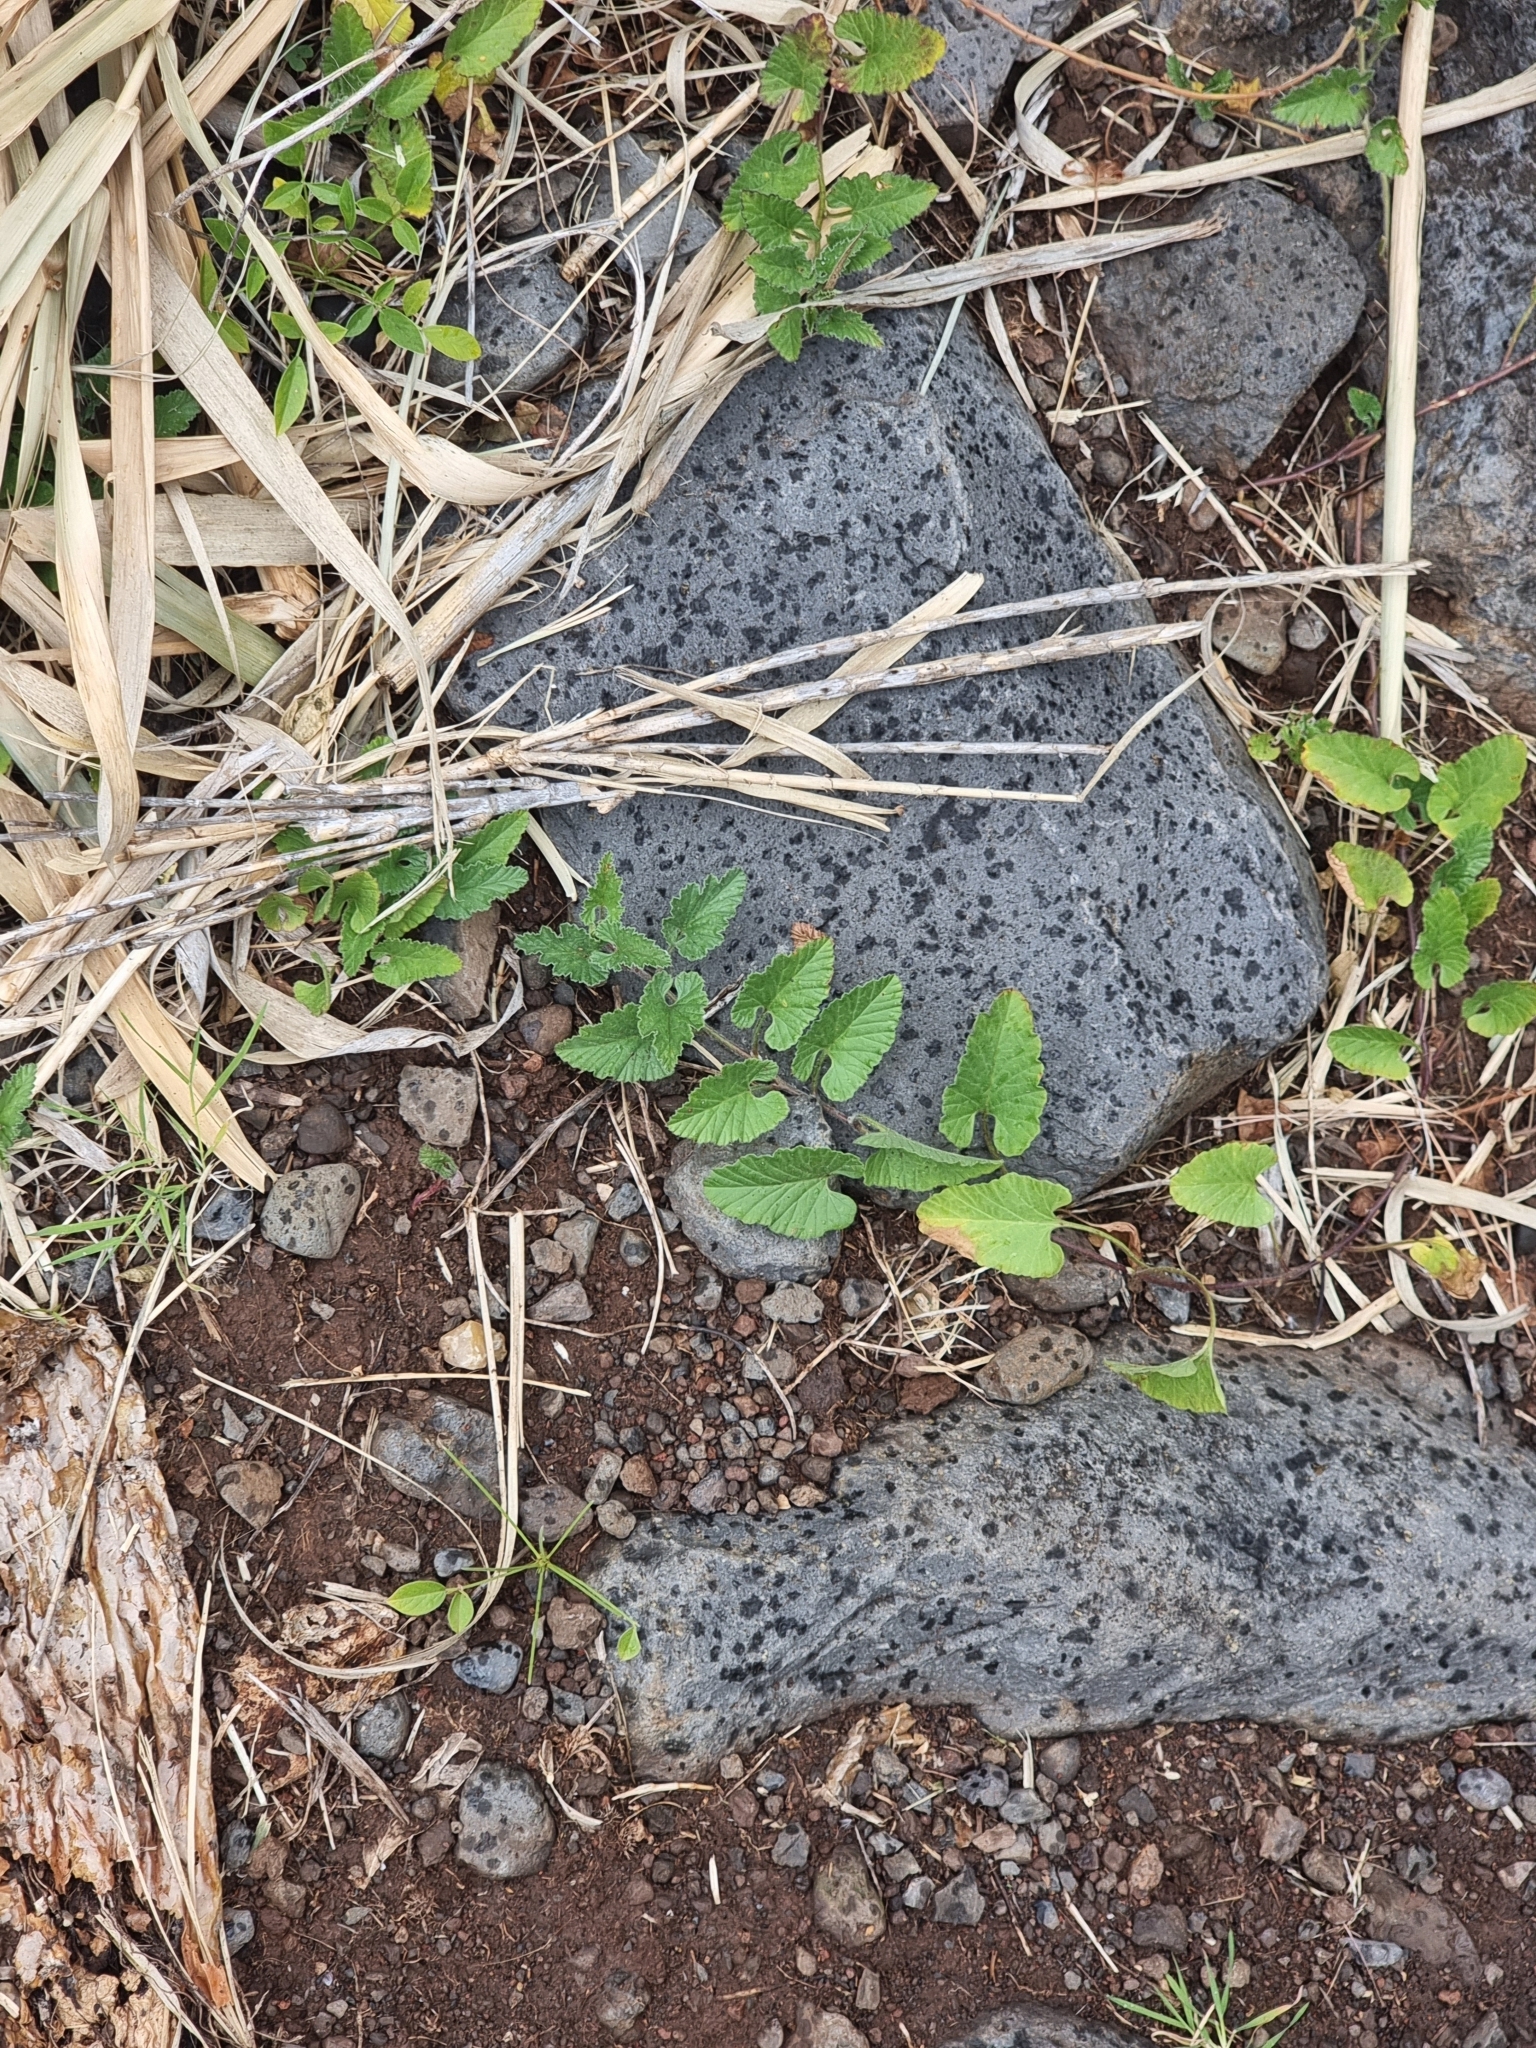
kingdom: Plantae
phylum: Tracheophyta
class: Magnoliopsida
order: Solanales
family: Convolvulaceae
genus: Convolvulus
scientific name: Convolvulus althaeoides
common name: Mallow bindweed
